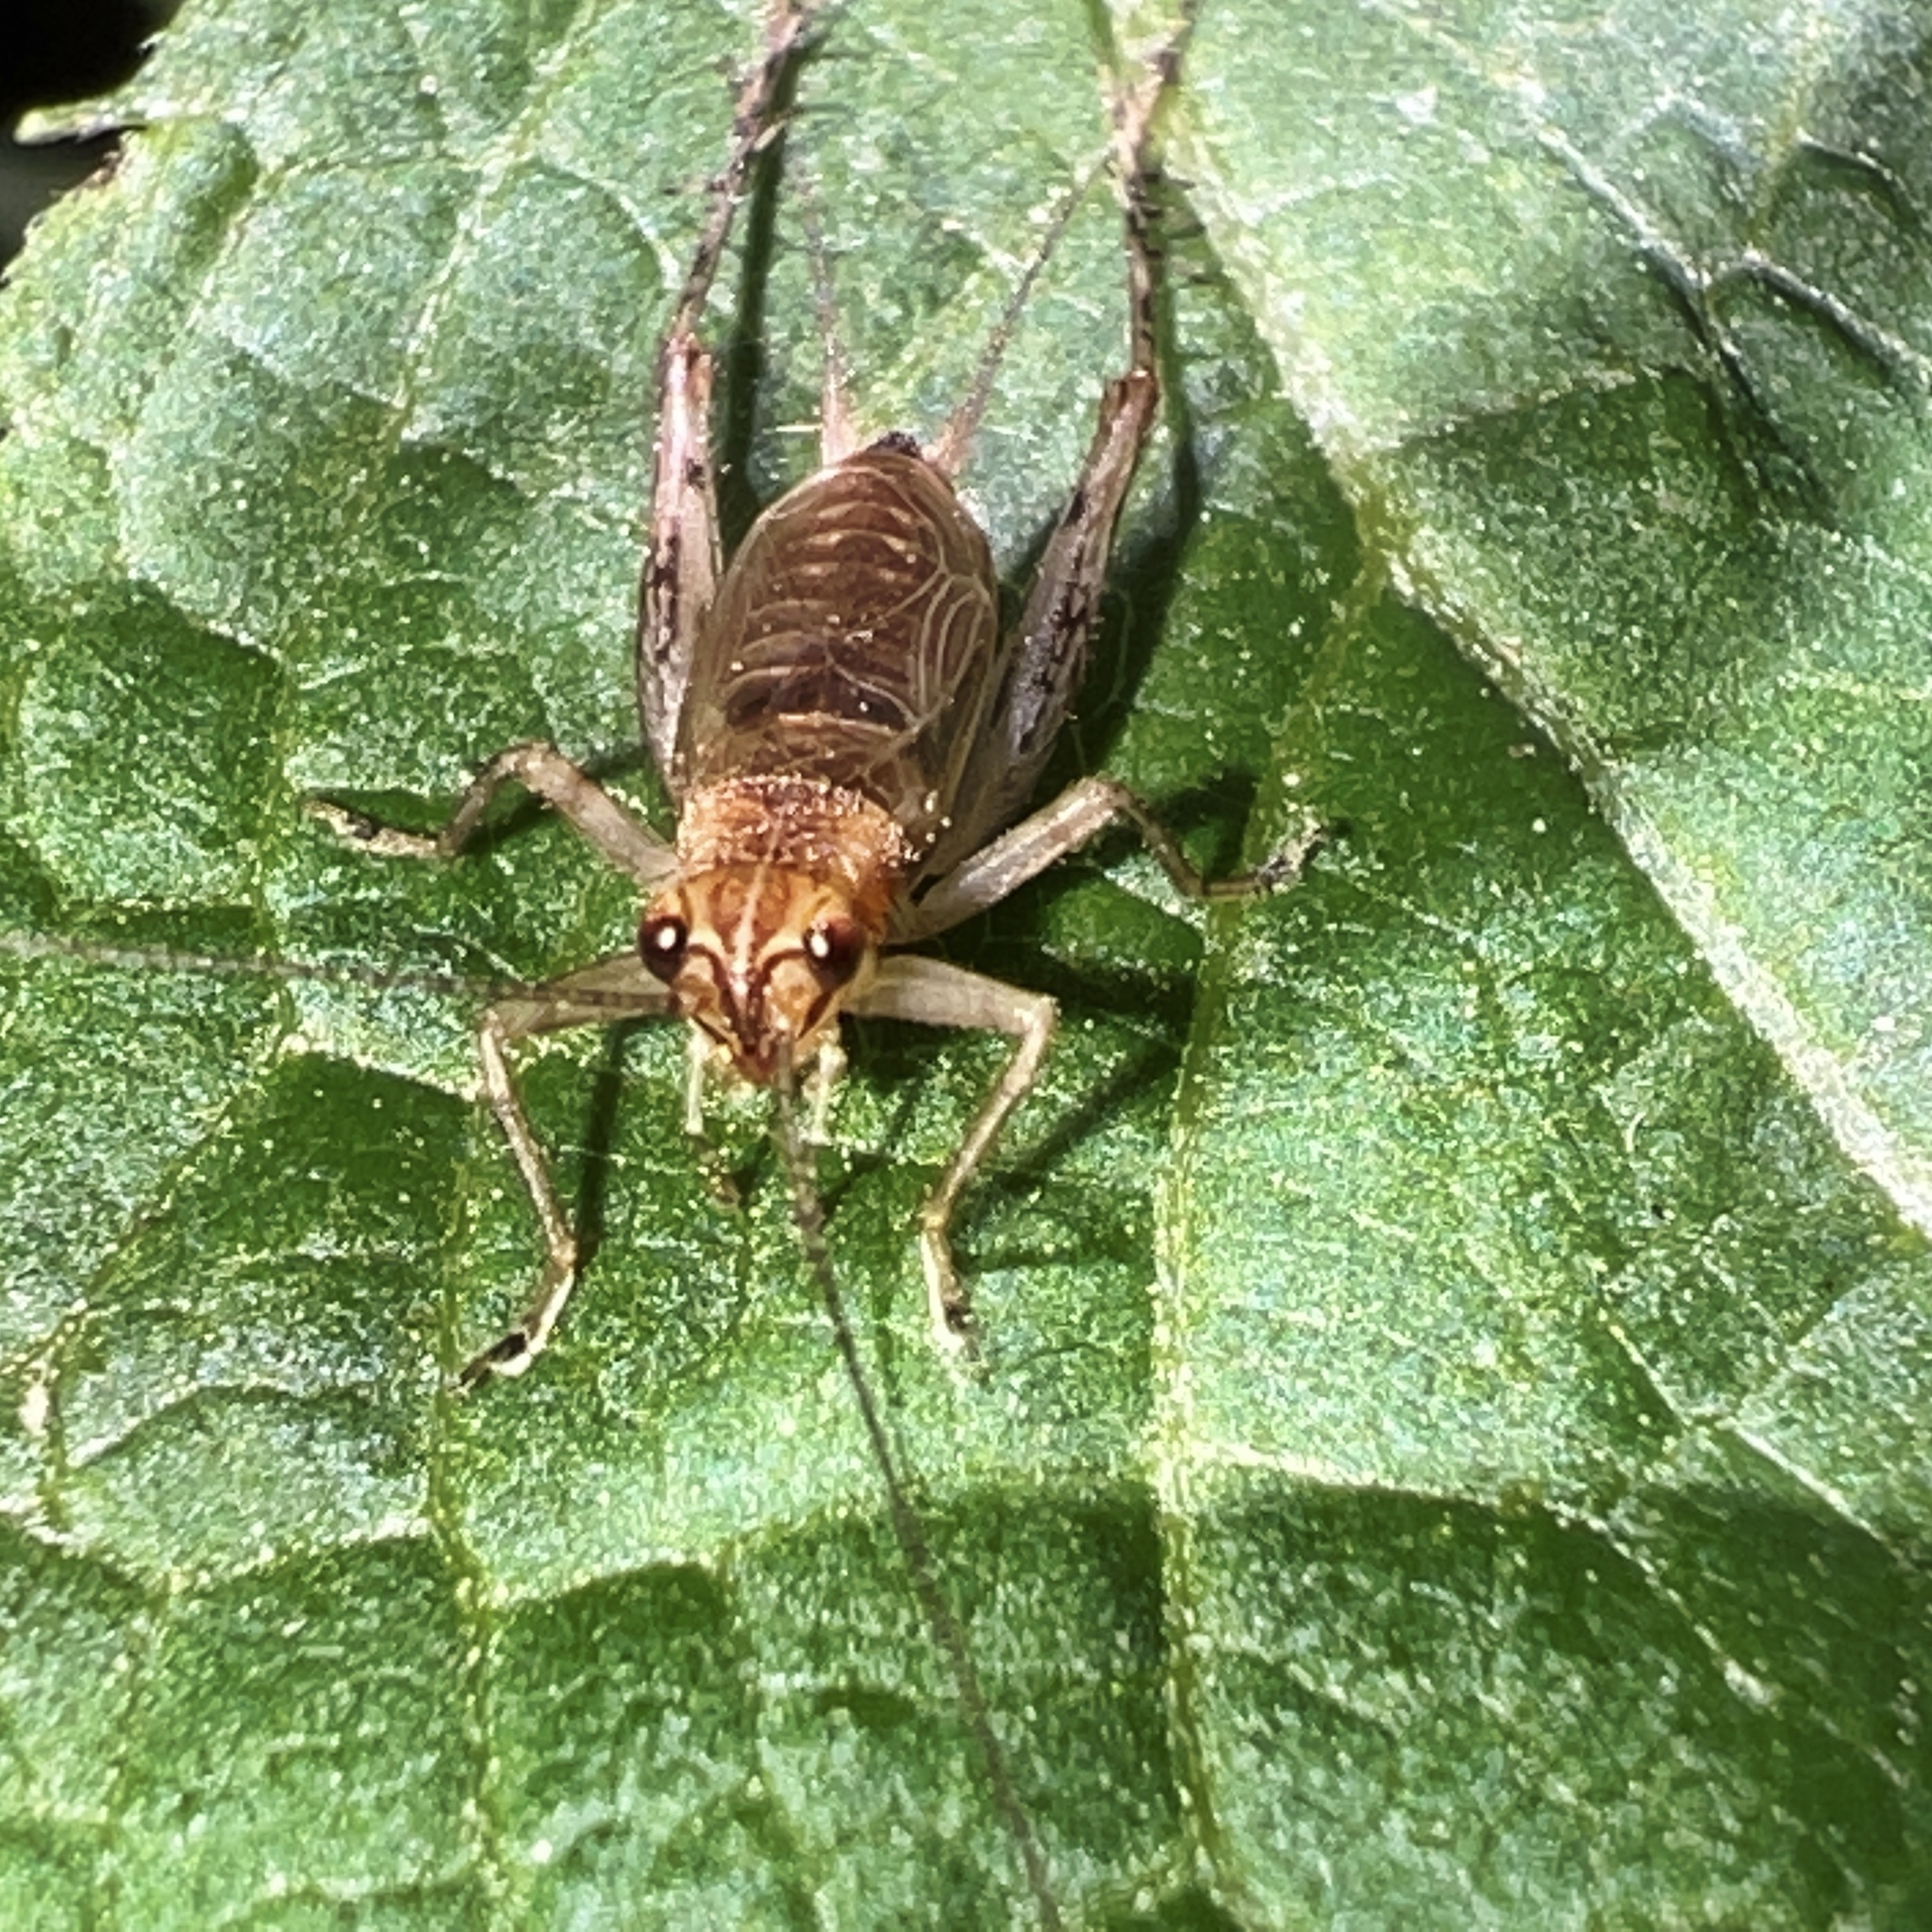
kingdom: Animalia
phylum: Arthropoda
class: Insecta
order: Orthoptera
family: Trigonidiidae
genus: Anaxipha
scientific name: Anaxipha exigua
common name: Say's bush cricket
